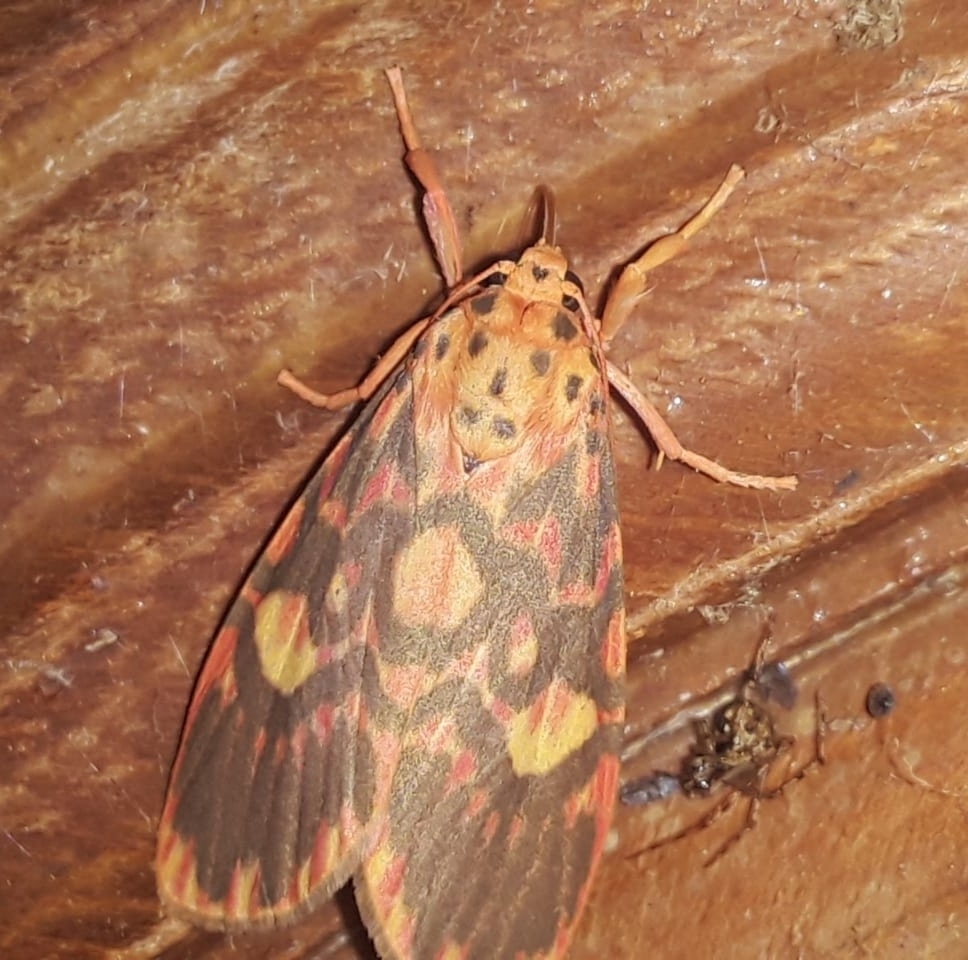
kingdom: Animalia
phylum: Arthropoda
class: Insecta
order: Lepidoptera
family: Erebidae
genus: Ammatho
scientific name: Ammatho cuneonotatus
